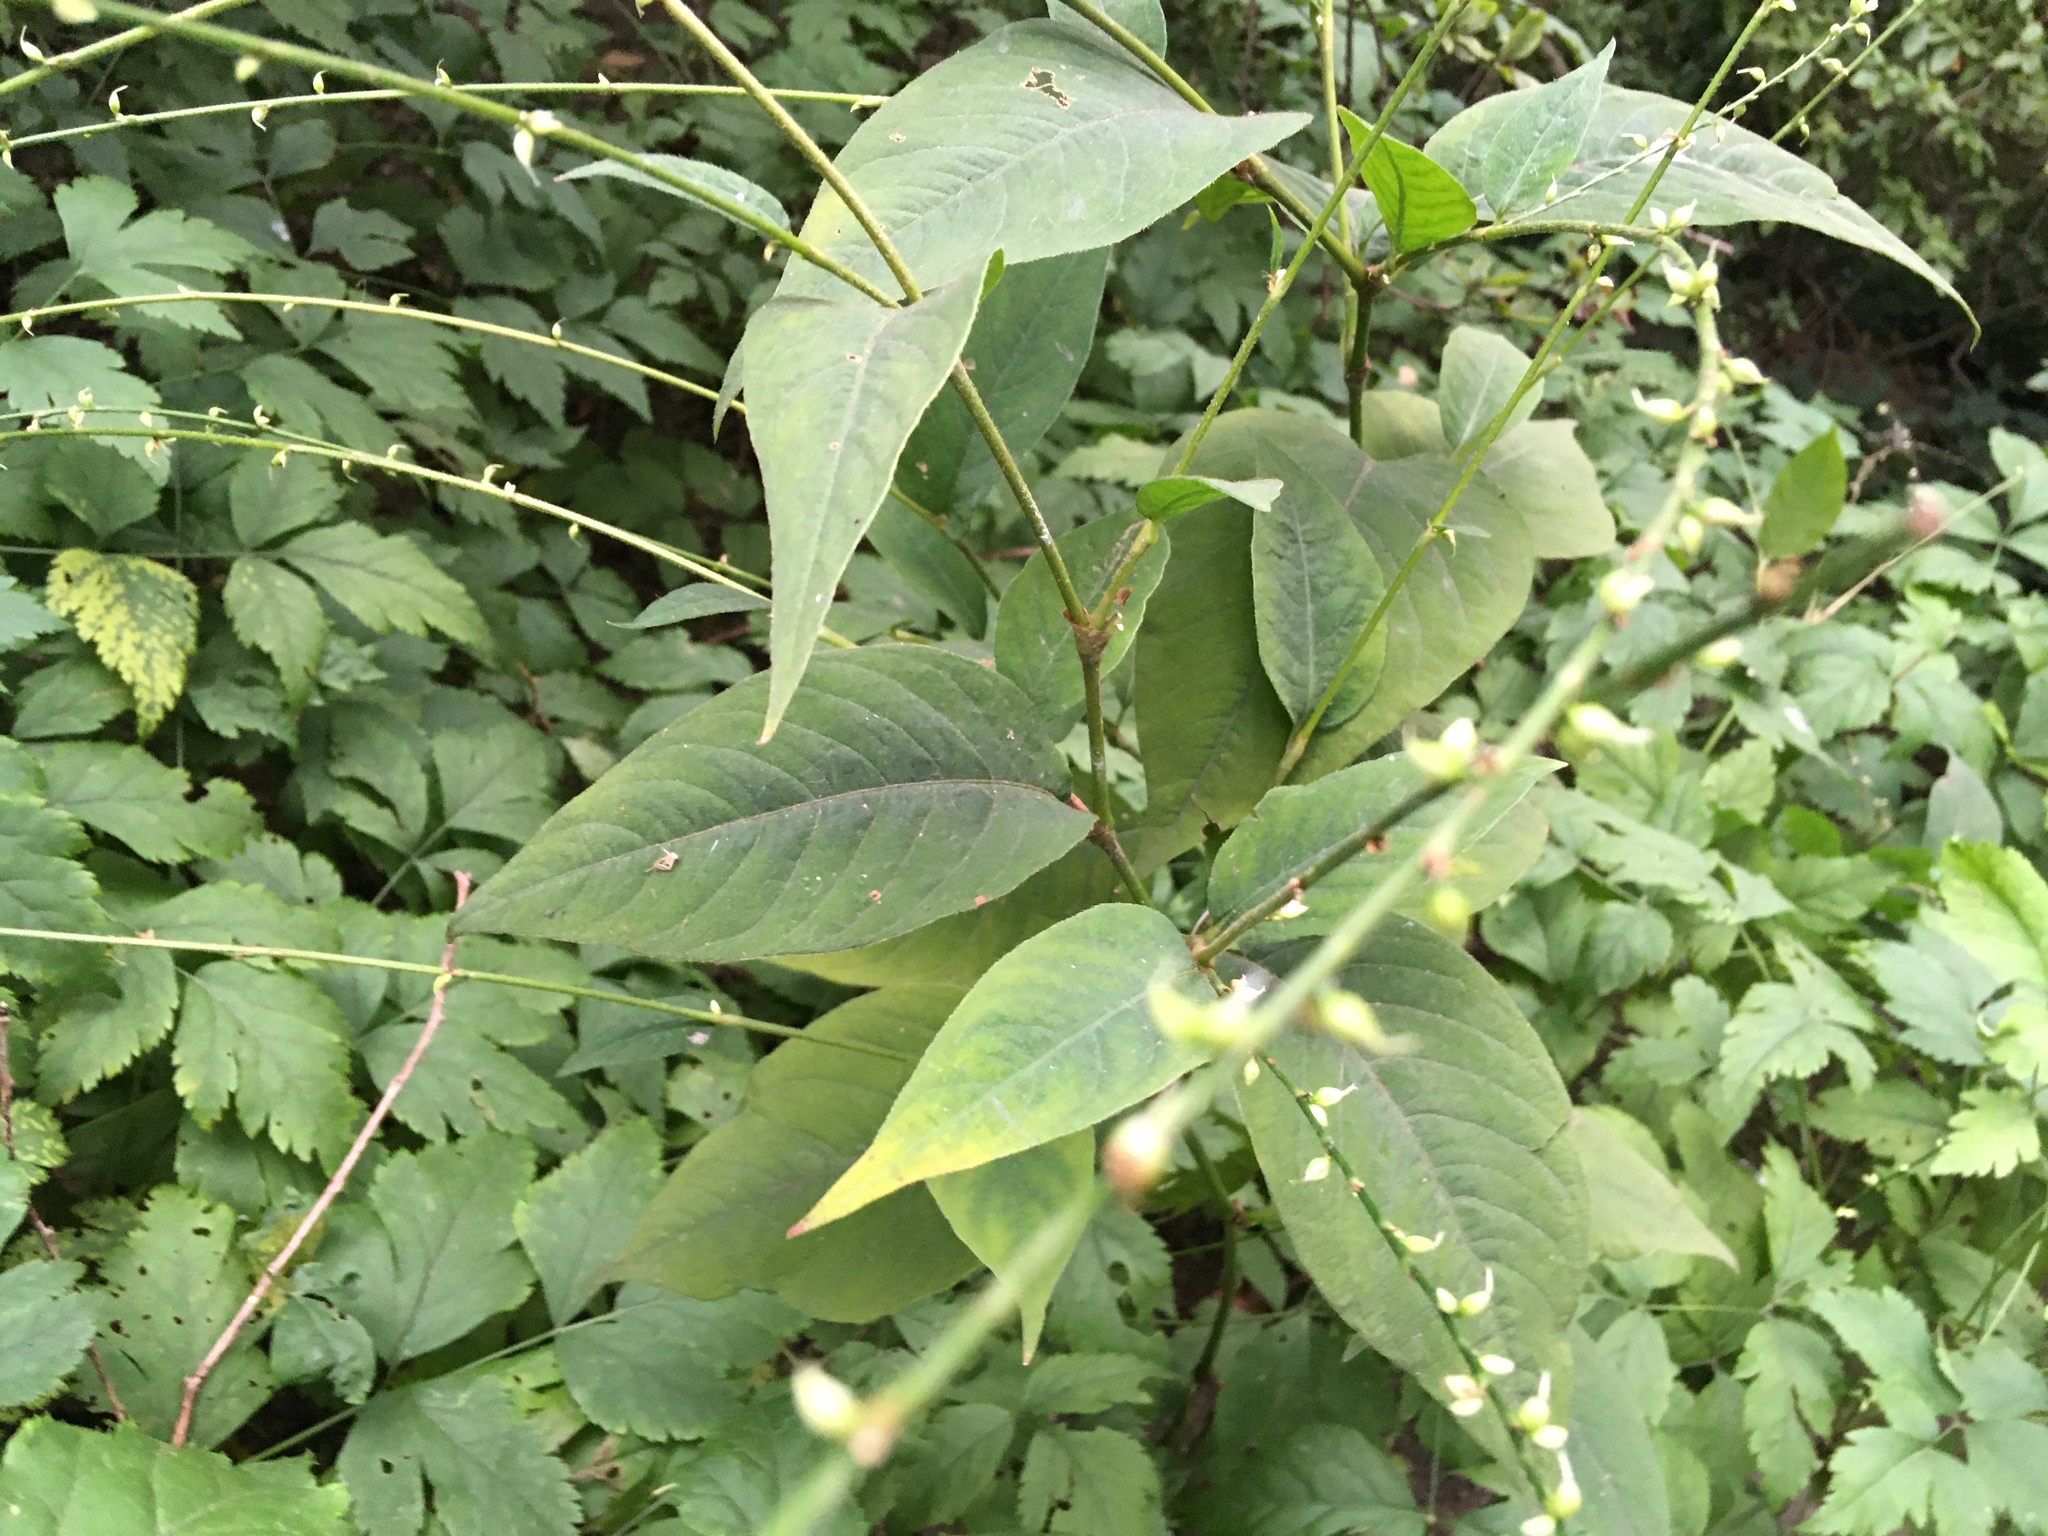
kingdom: Plantae
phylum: Tracheophyta
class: Magnoliopsida
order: Caryophyllales
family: Polygonaceae
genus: Persicaria
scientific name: Persicaria virginiana
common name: Jumpseed
